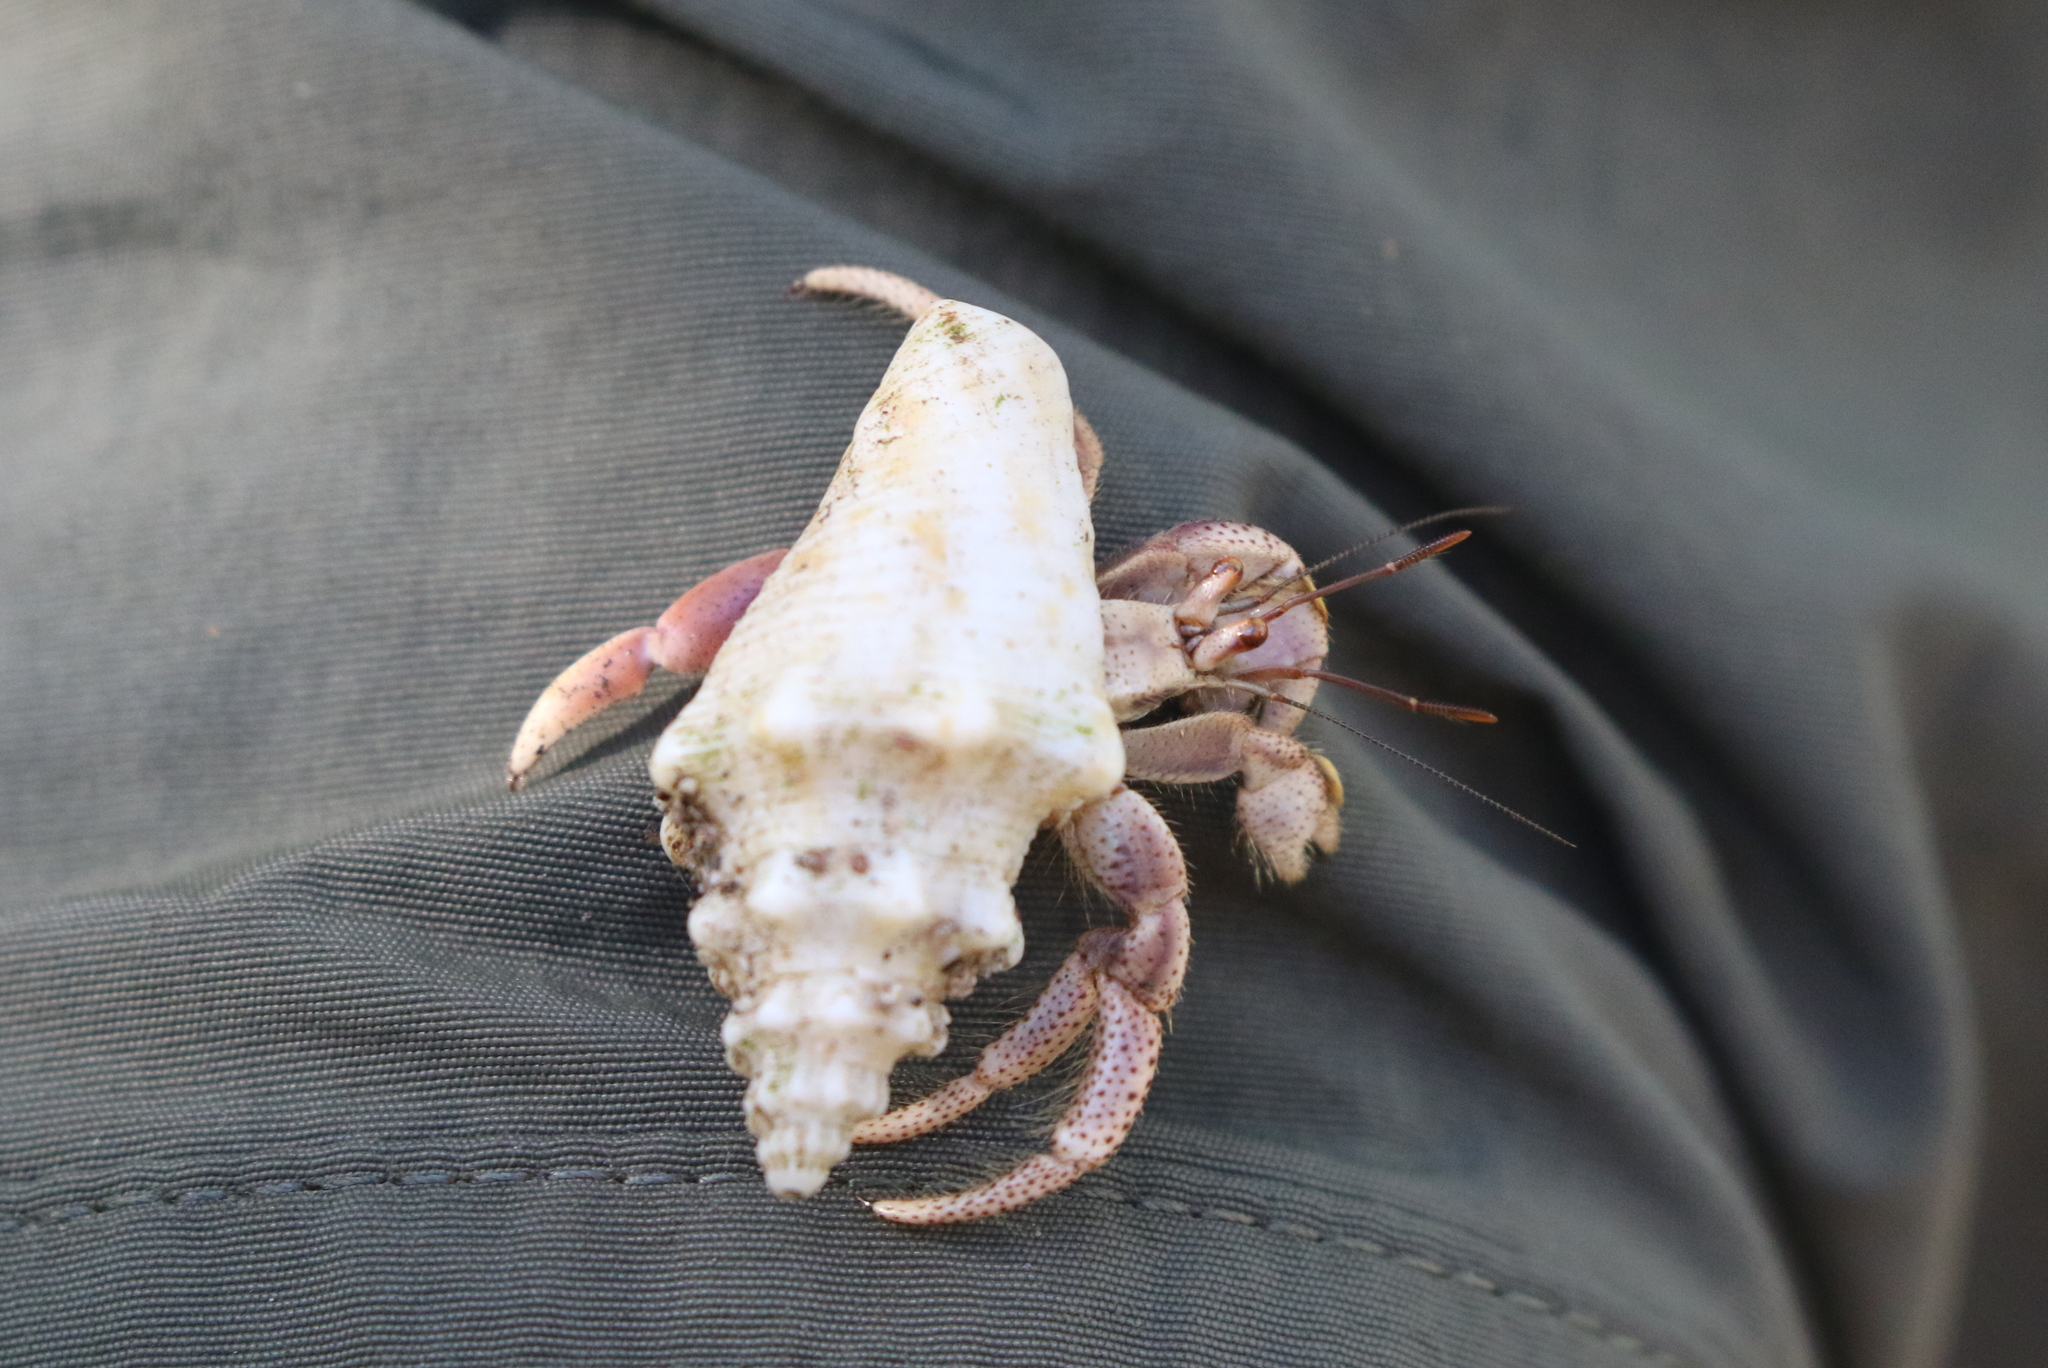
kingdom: Animalia
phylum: Arthropoda
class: Malacostraca
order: Decapoda
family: Coenobitidae
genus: Coenobita
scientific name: Coenobita clypeatus
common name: Caribbean hermit crab
